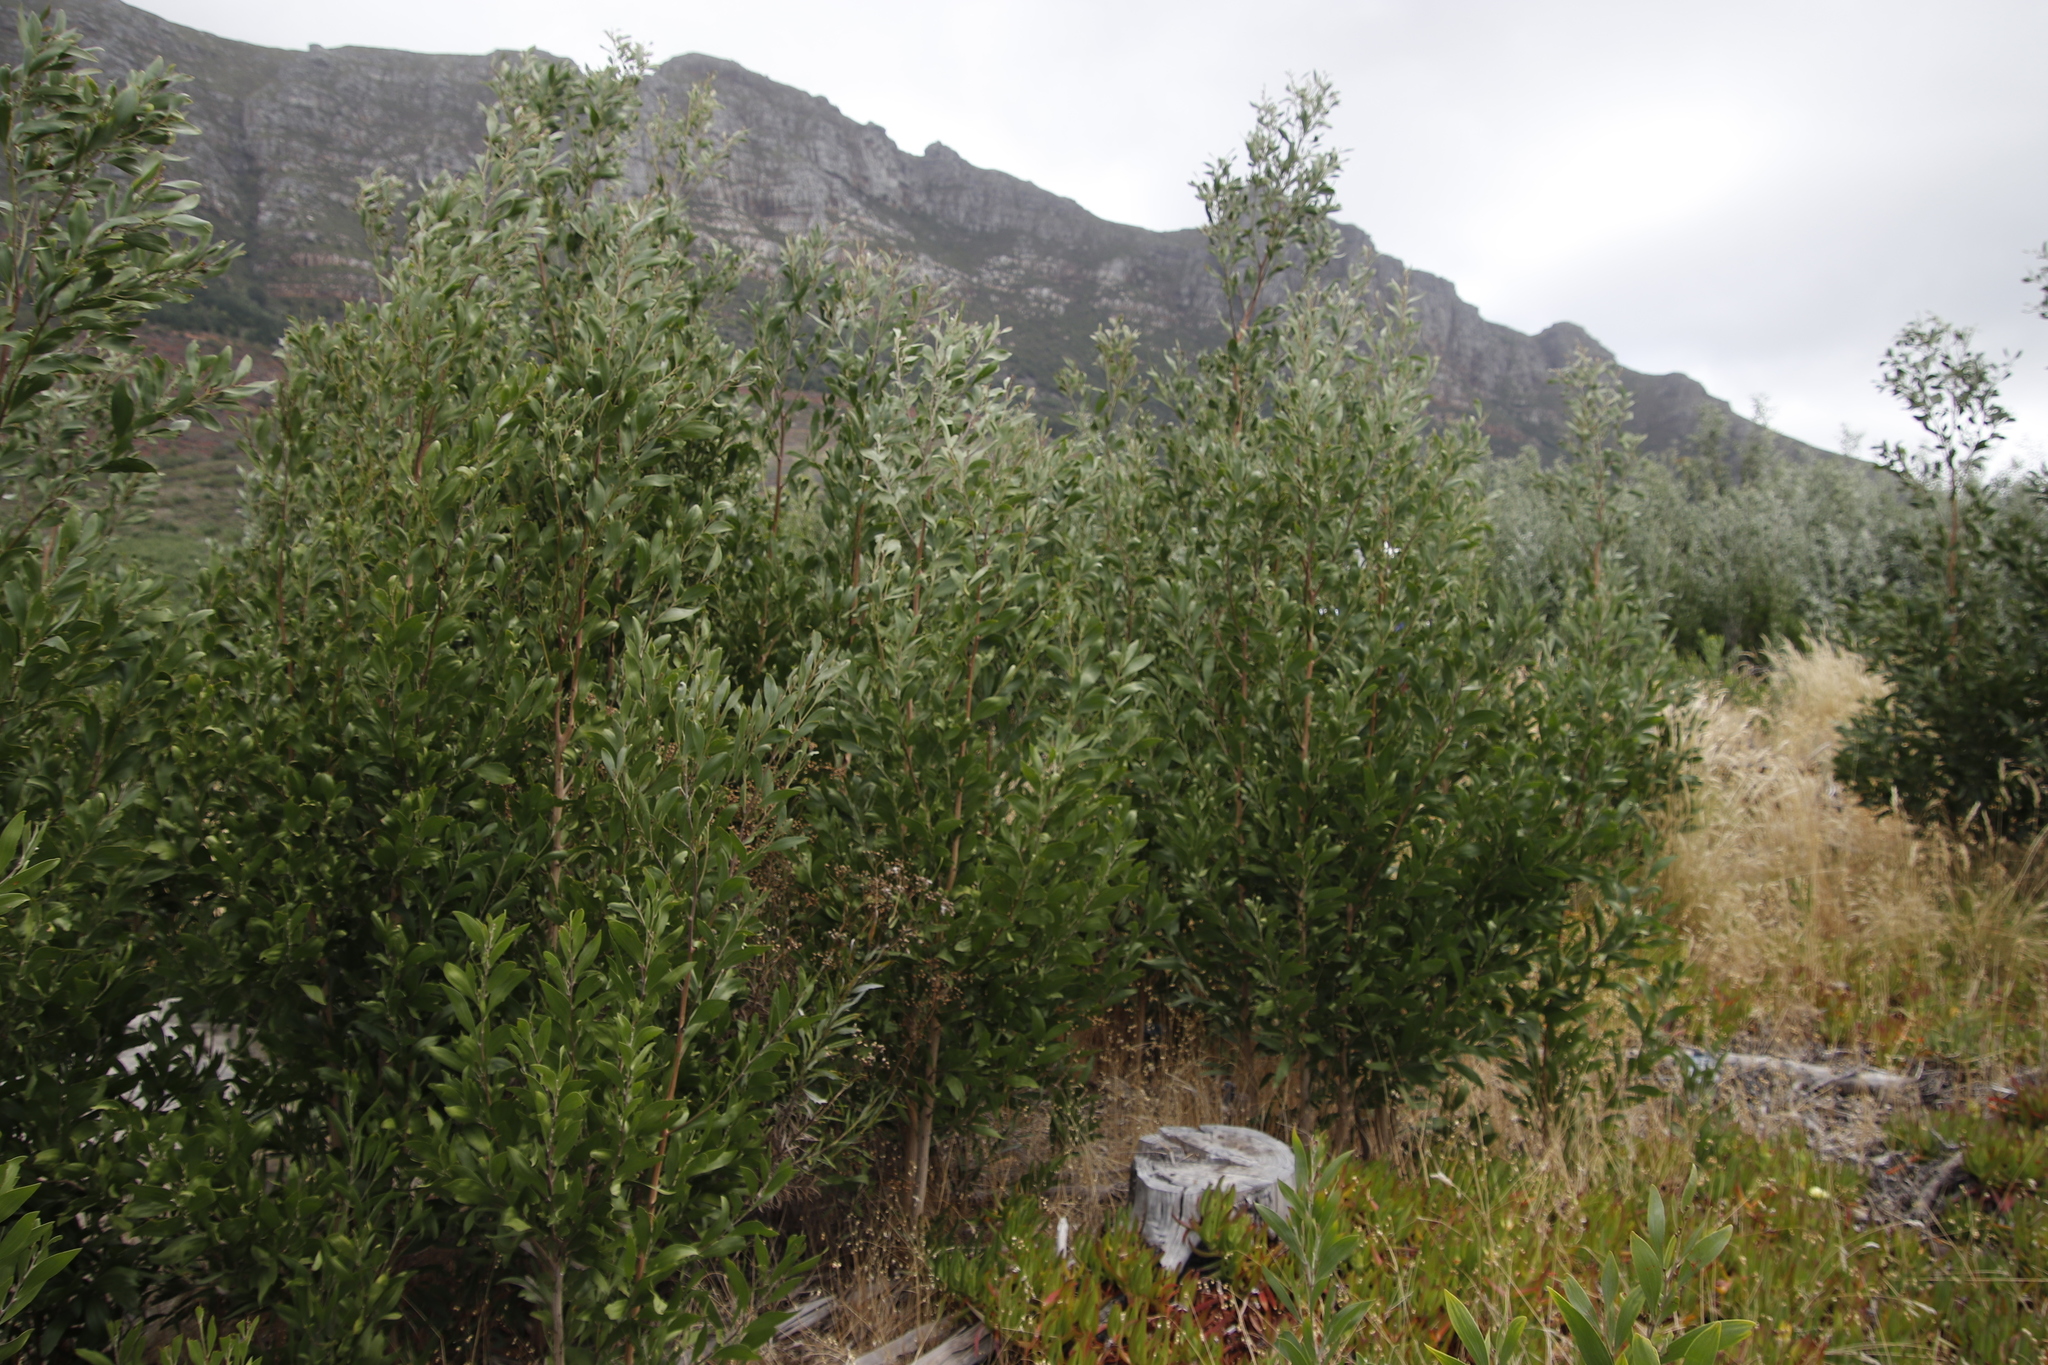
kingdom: Plantae
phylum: Tracheophyta
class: Magnoliopsida
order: Fabales
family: Fabaceae
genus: Acacia
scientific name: Acacia melanoxylon
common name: Blackwood
